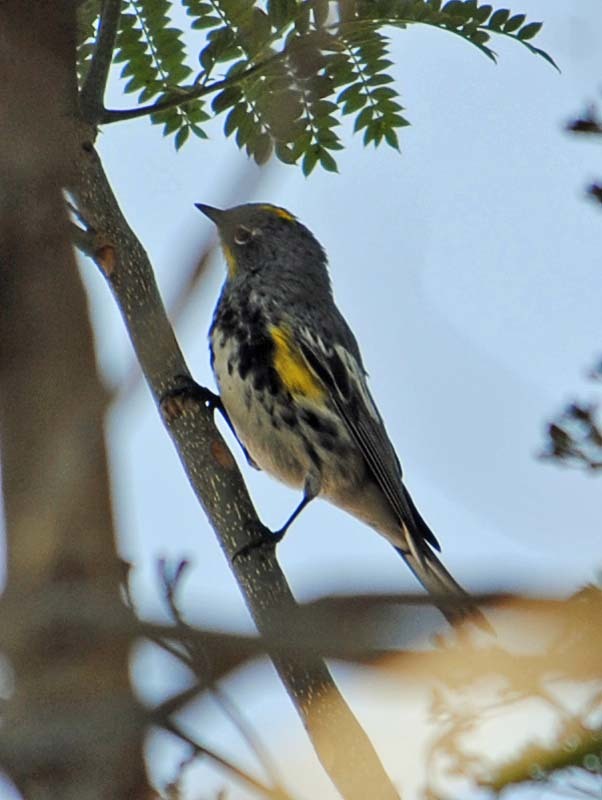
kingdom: Animalia
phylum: Chordata
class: Aves
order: Passeriformes
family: Parulidae
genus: Setophaga
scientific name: Setophaga auduboni
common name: Audubon's warbler
